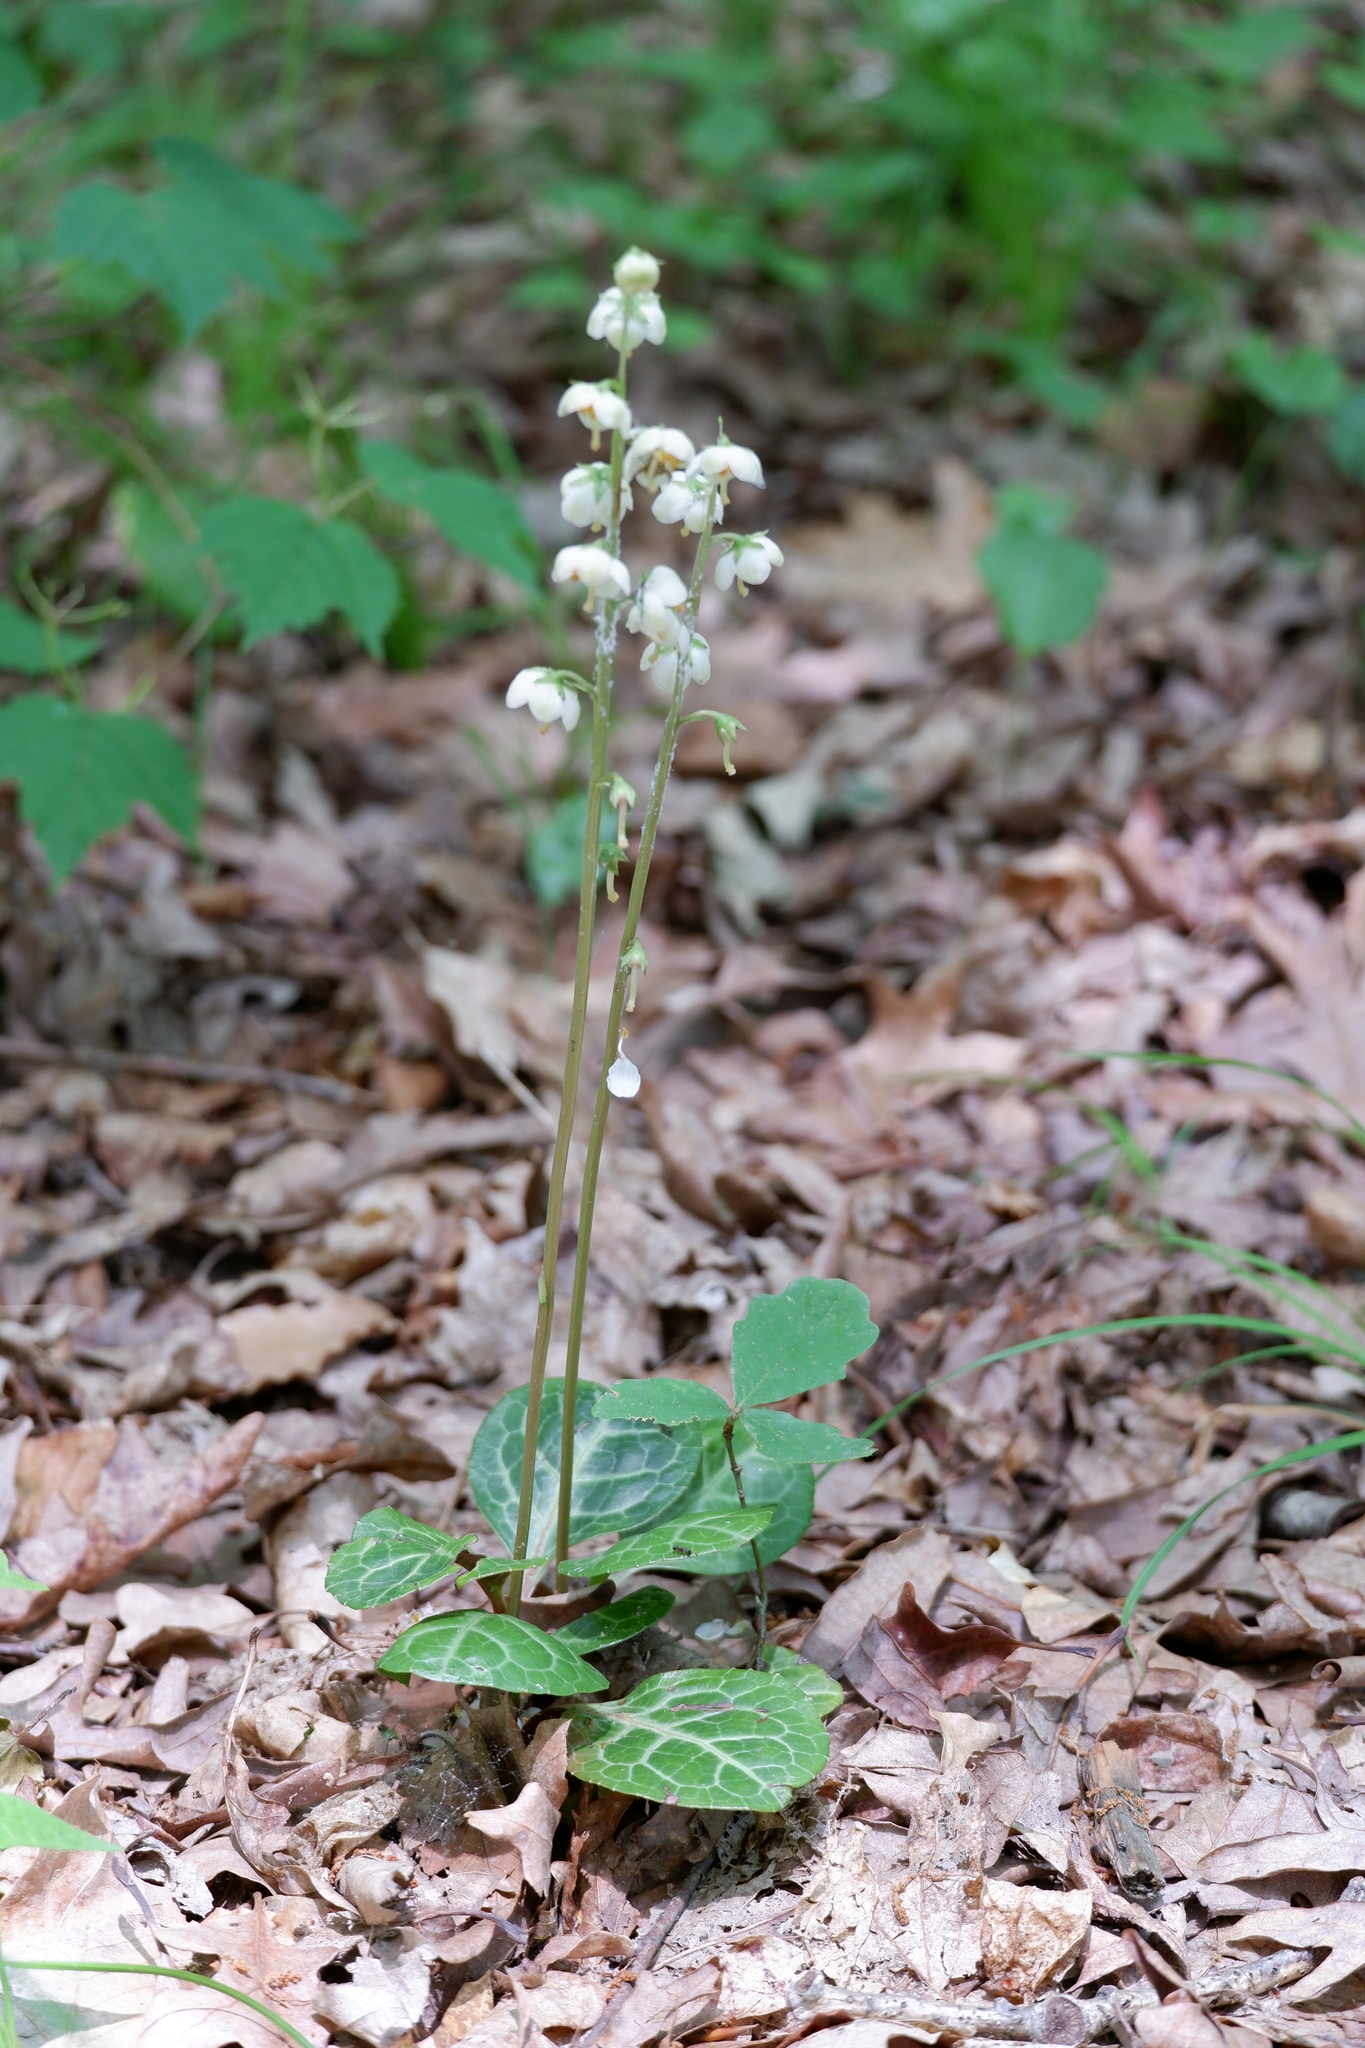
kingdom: Plantae
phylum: Tracheophyta
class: Magnoliopsida
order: Ericales
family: Ericaceae
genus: Pyrola
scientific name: Pyrola americana
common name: American wintergreen
